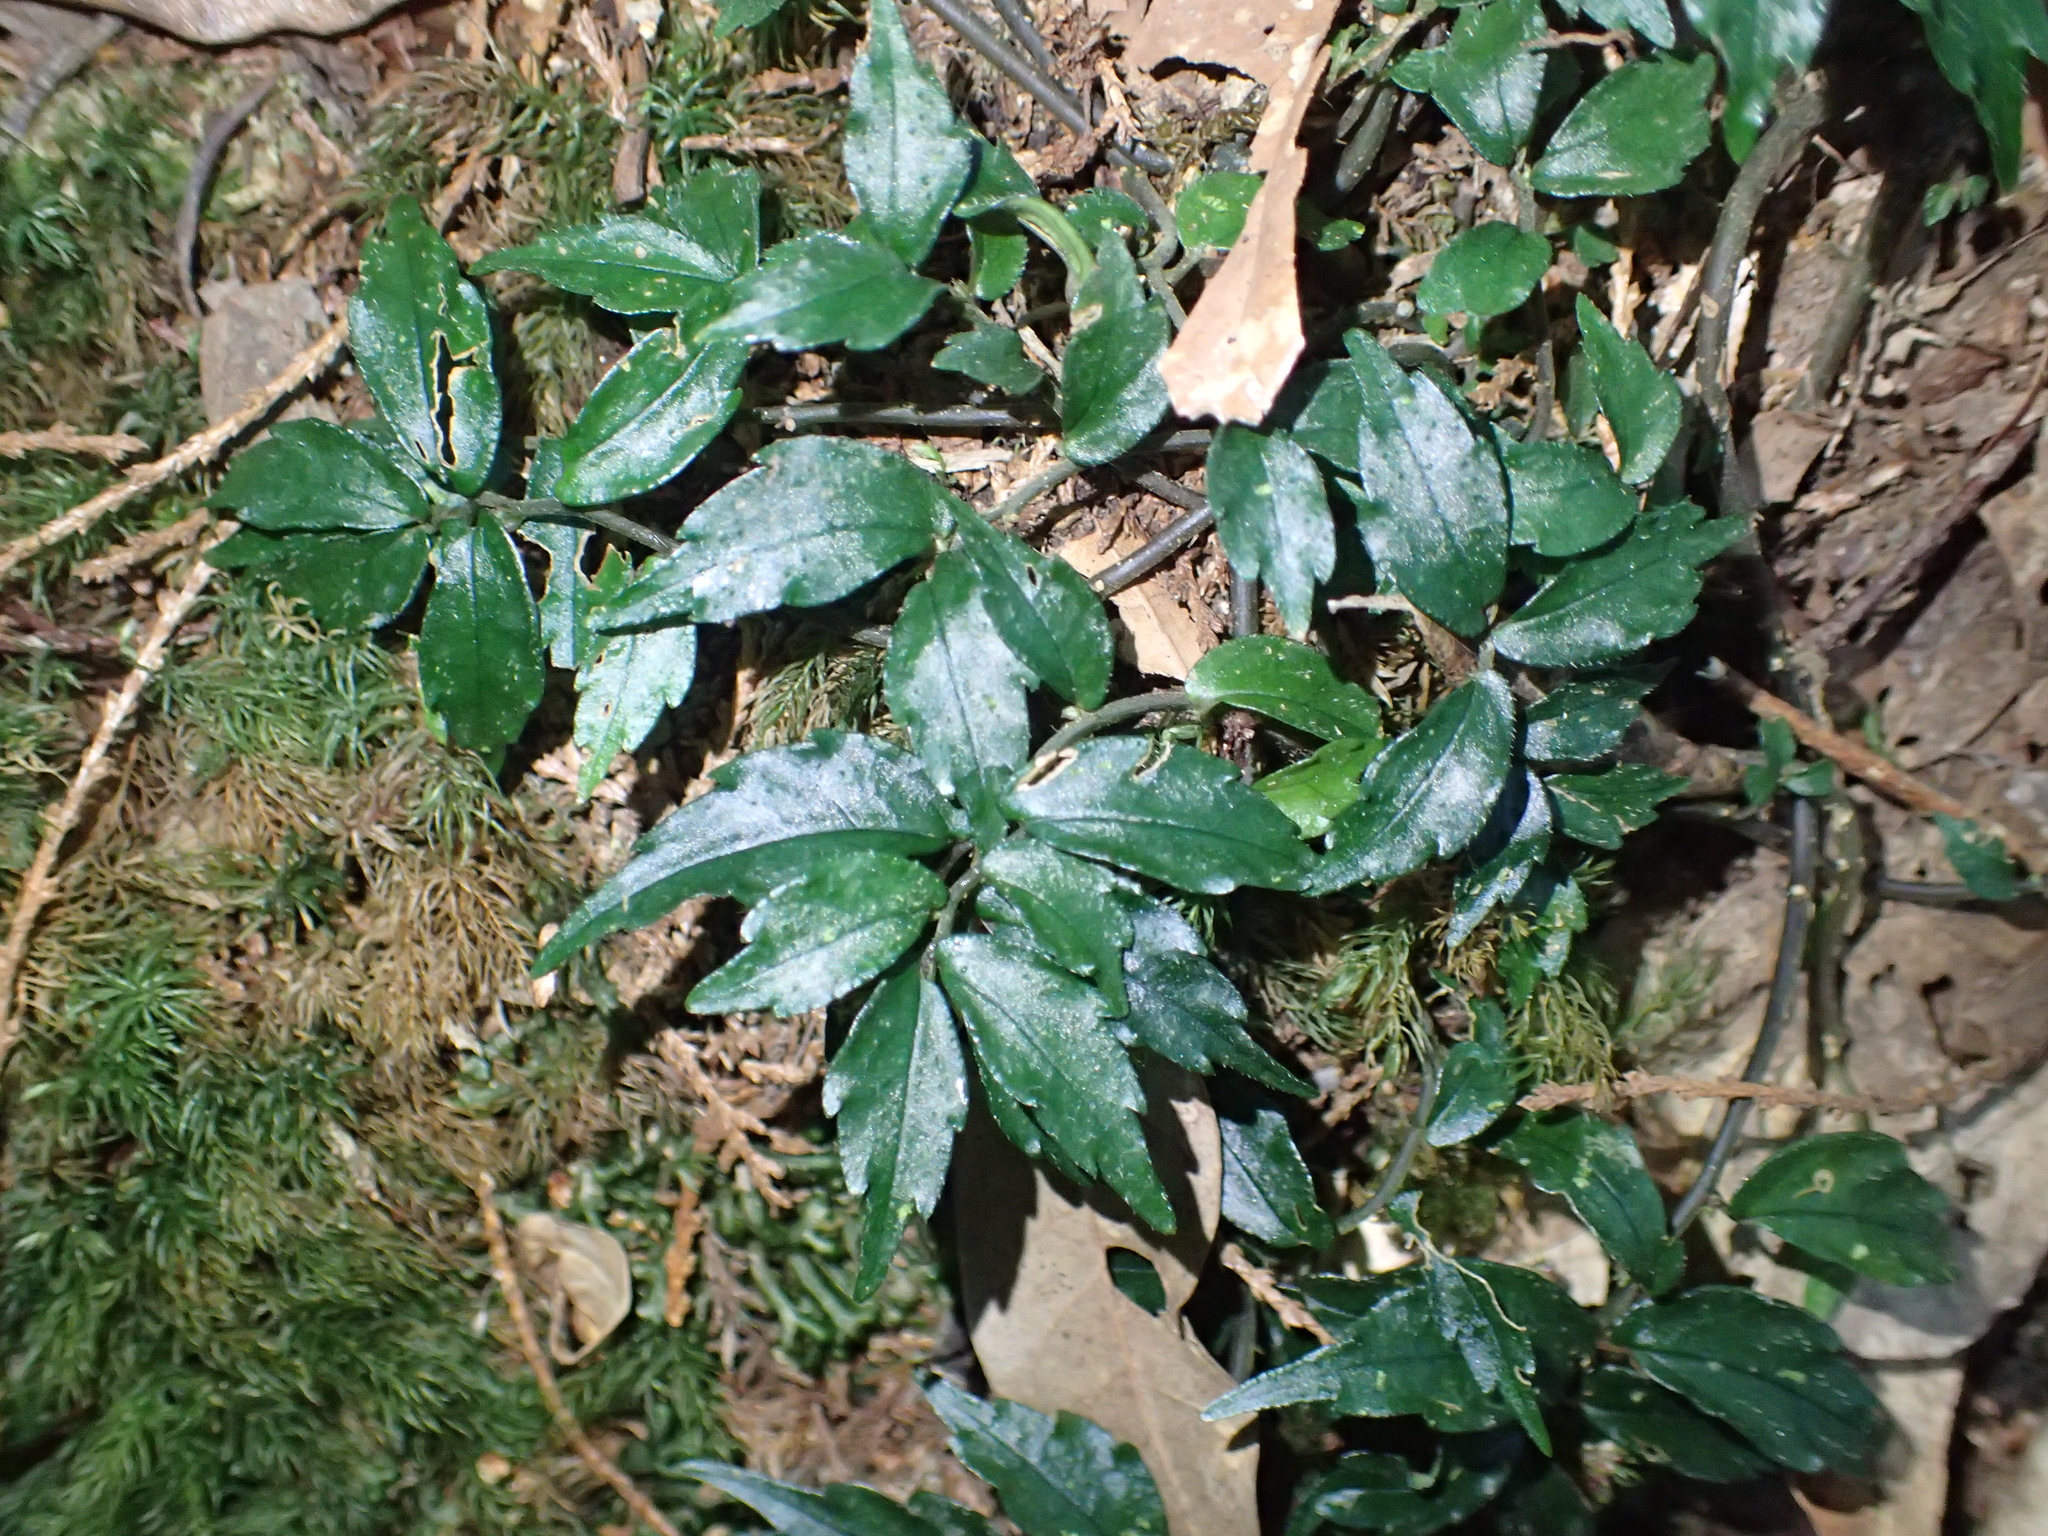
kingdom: Plantae
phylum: Tracheophyta
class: Magnoliopsida
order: Rosales
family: Urticaceae
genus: Elatostema
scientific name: Elatostema radicans
